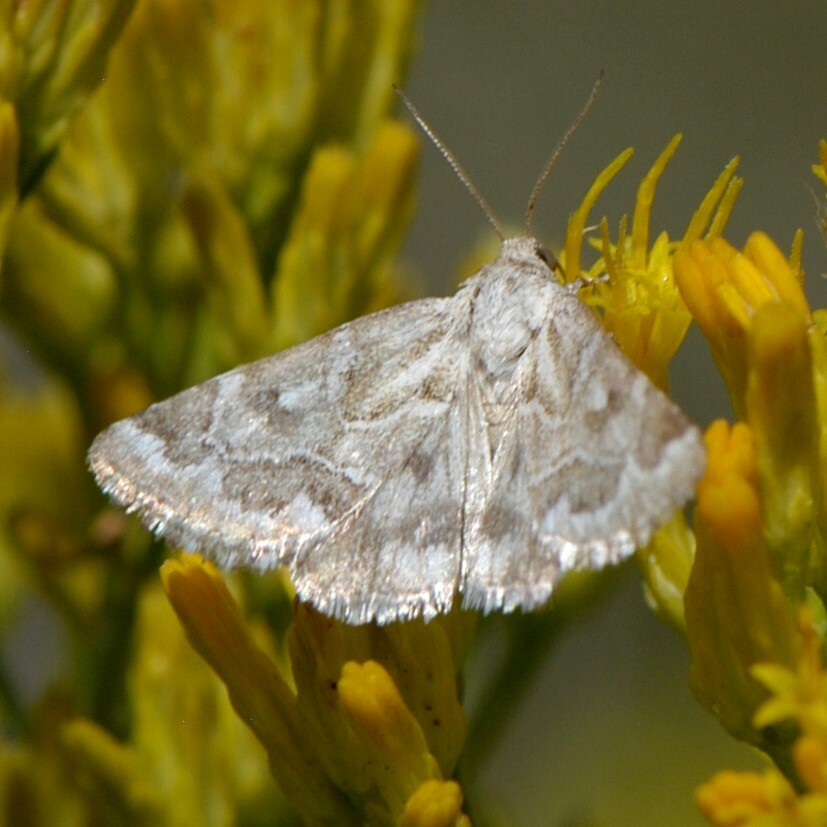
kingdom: Animalia
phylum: Arthropoda
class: Insecta
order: Lepidoptera
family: Noctuidae
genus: Schinia
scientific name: Schinia acutilinea
